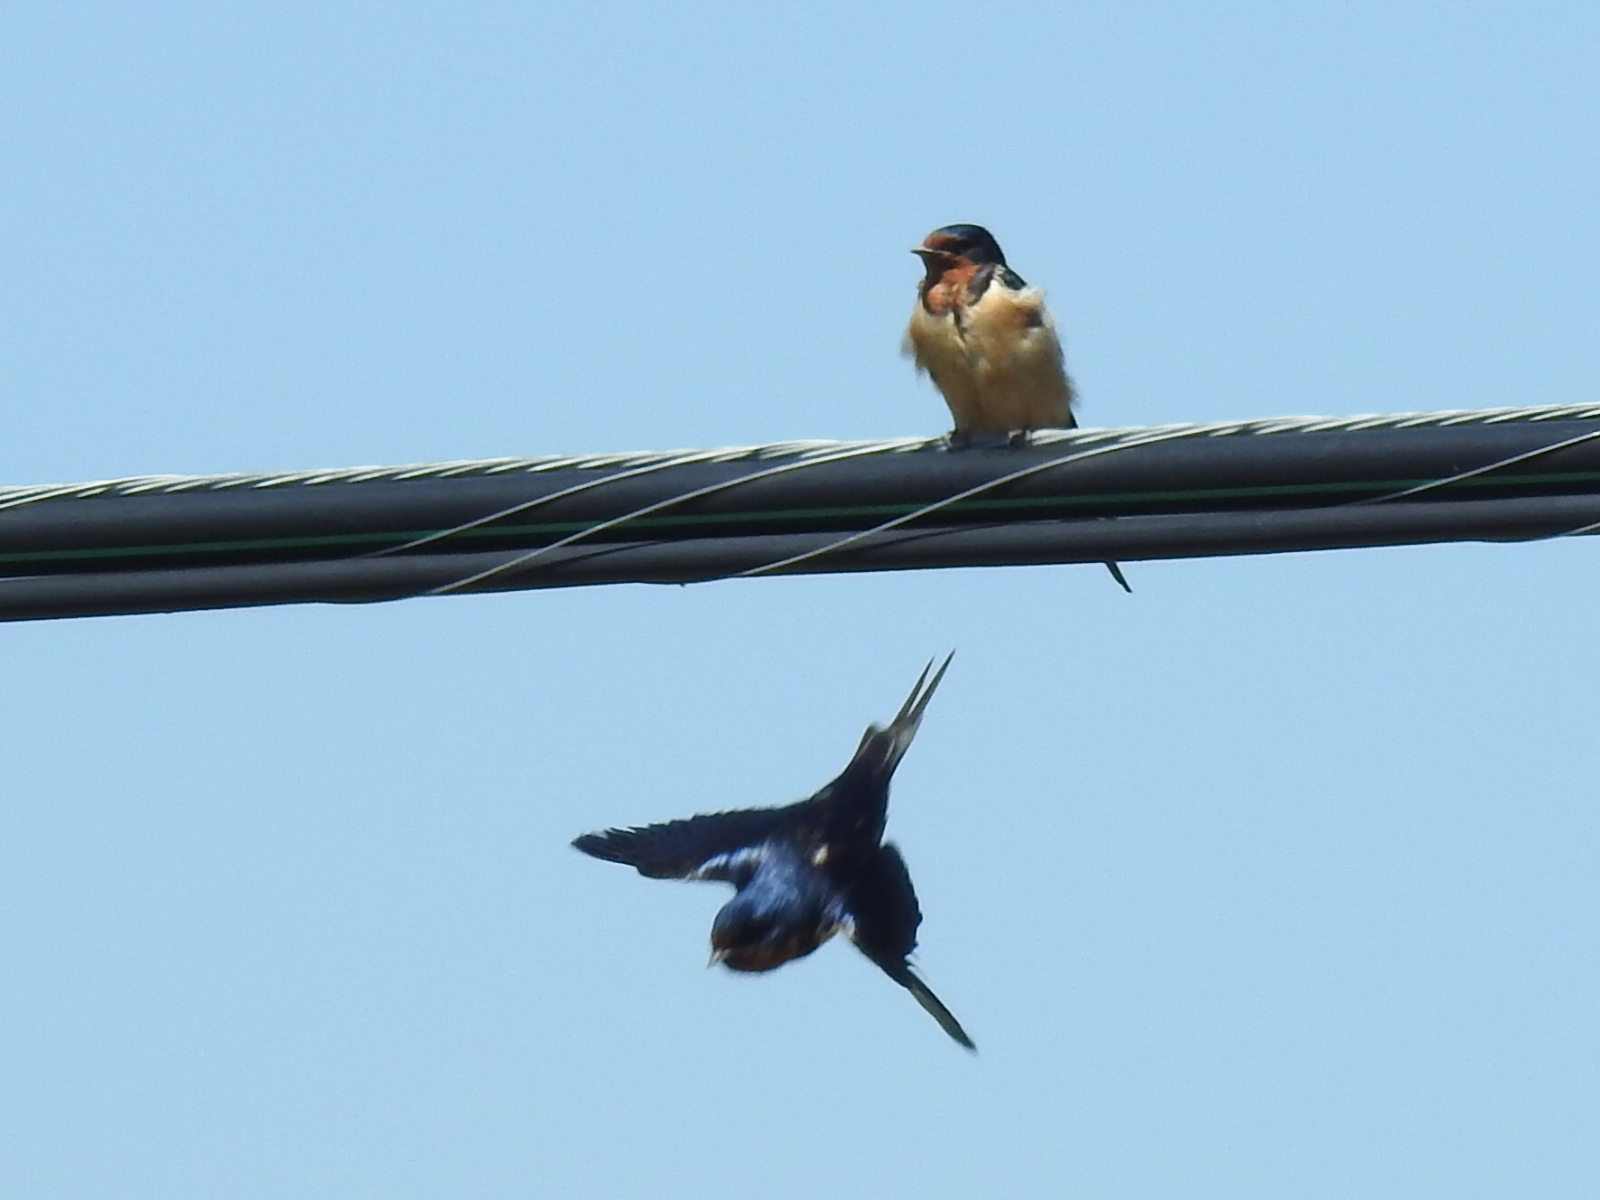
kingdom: Animalia
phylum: Chordata
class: Aves
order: Passeriformes
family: Hirundinidae
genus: Hirundo
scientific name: Hirundo rustica
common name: Barn swallow
